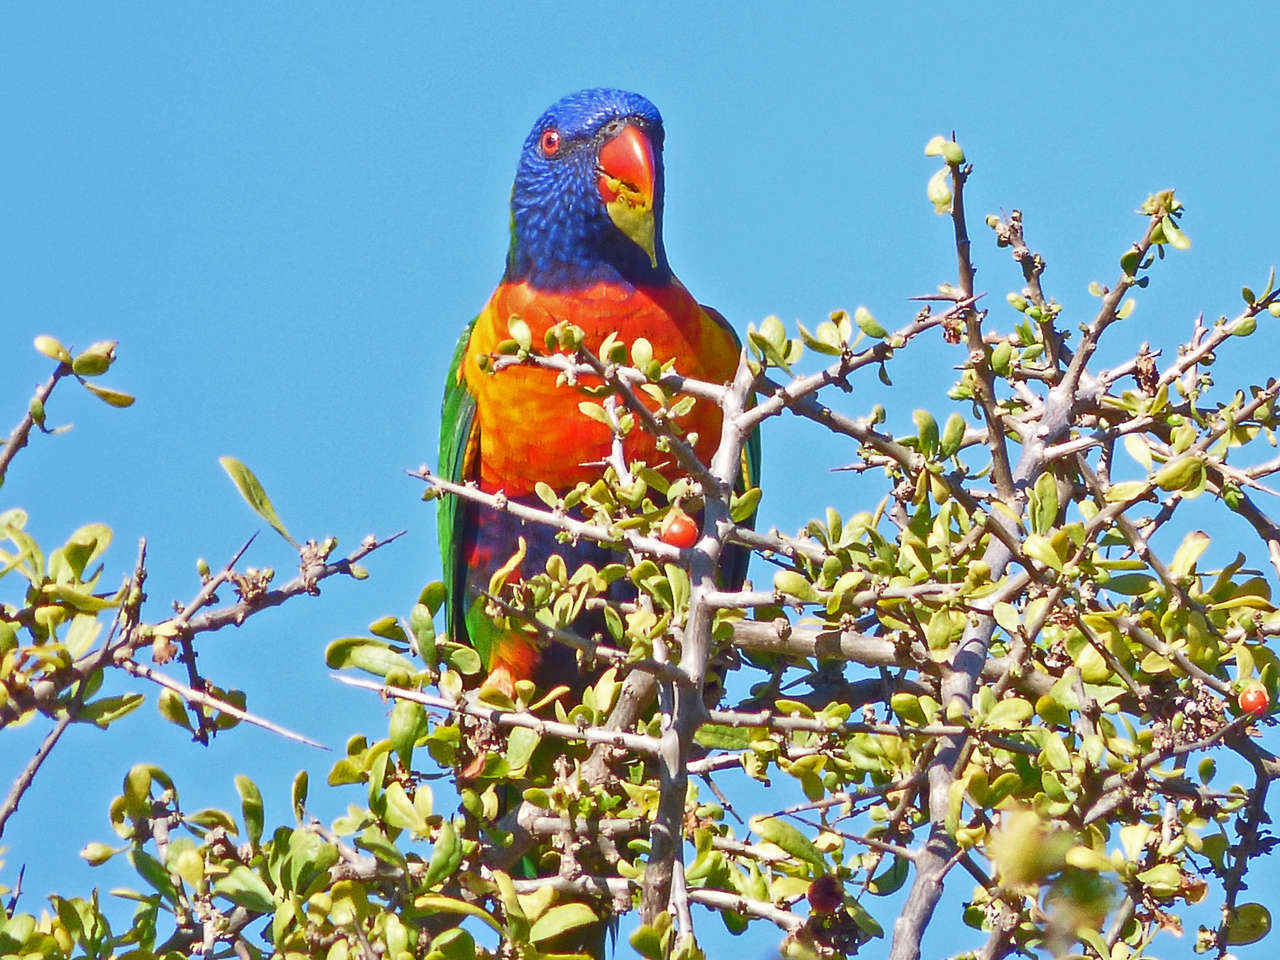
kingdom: Plantae
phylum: Tracheophyta
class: Magnoliopsida
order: Solanales
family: Solanaceae
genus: Lycium
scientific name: Lycium ferocissimum
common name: African boxthorn
